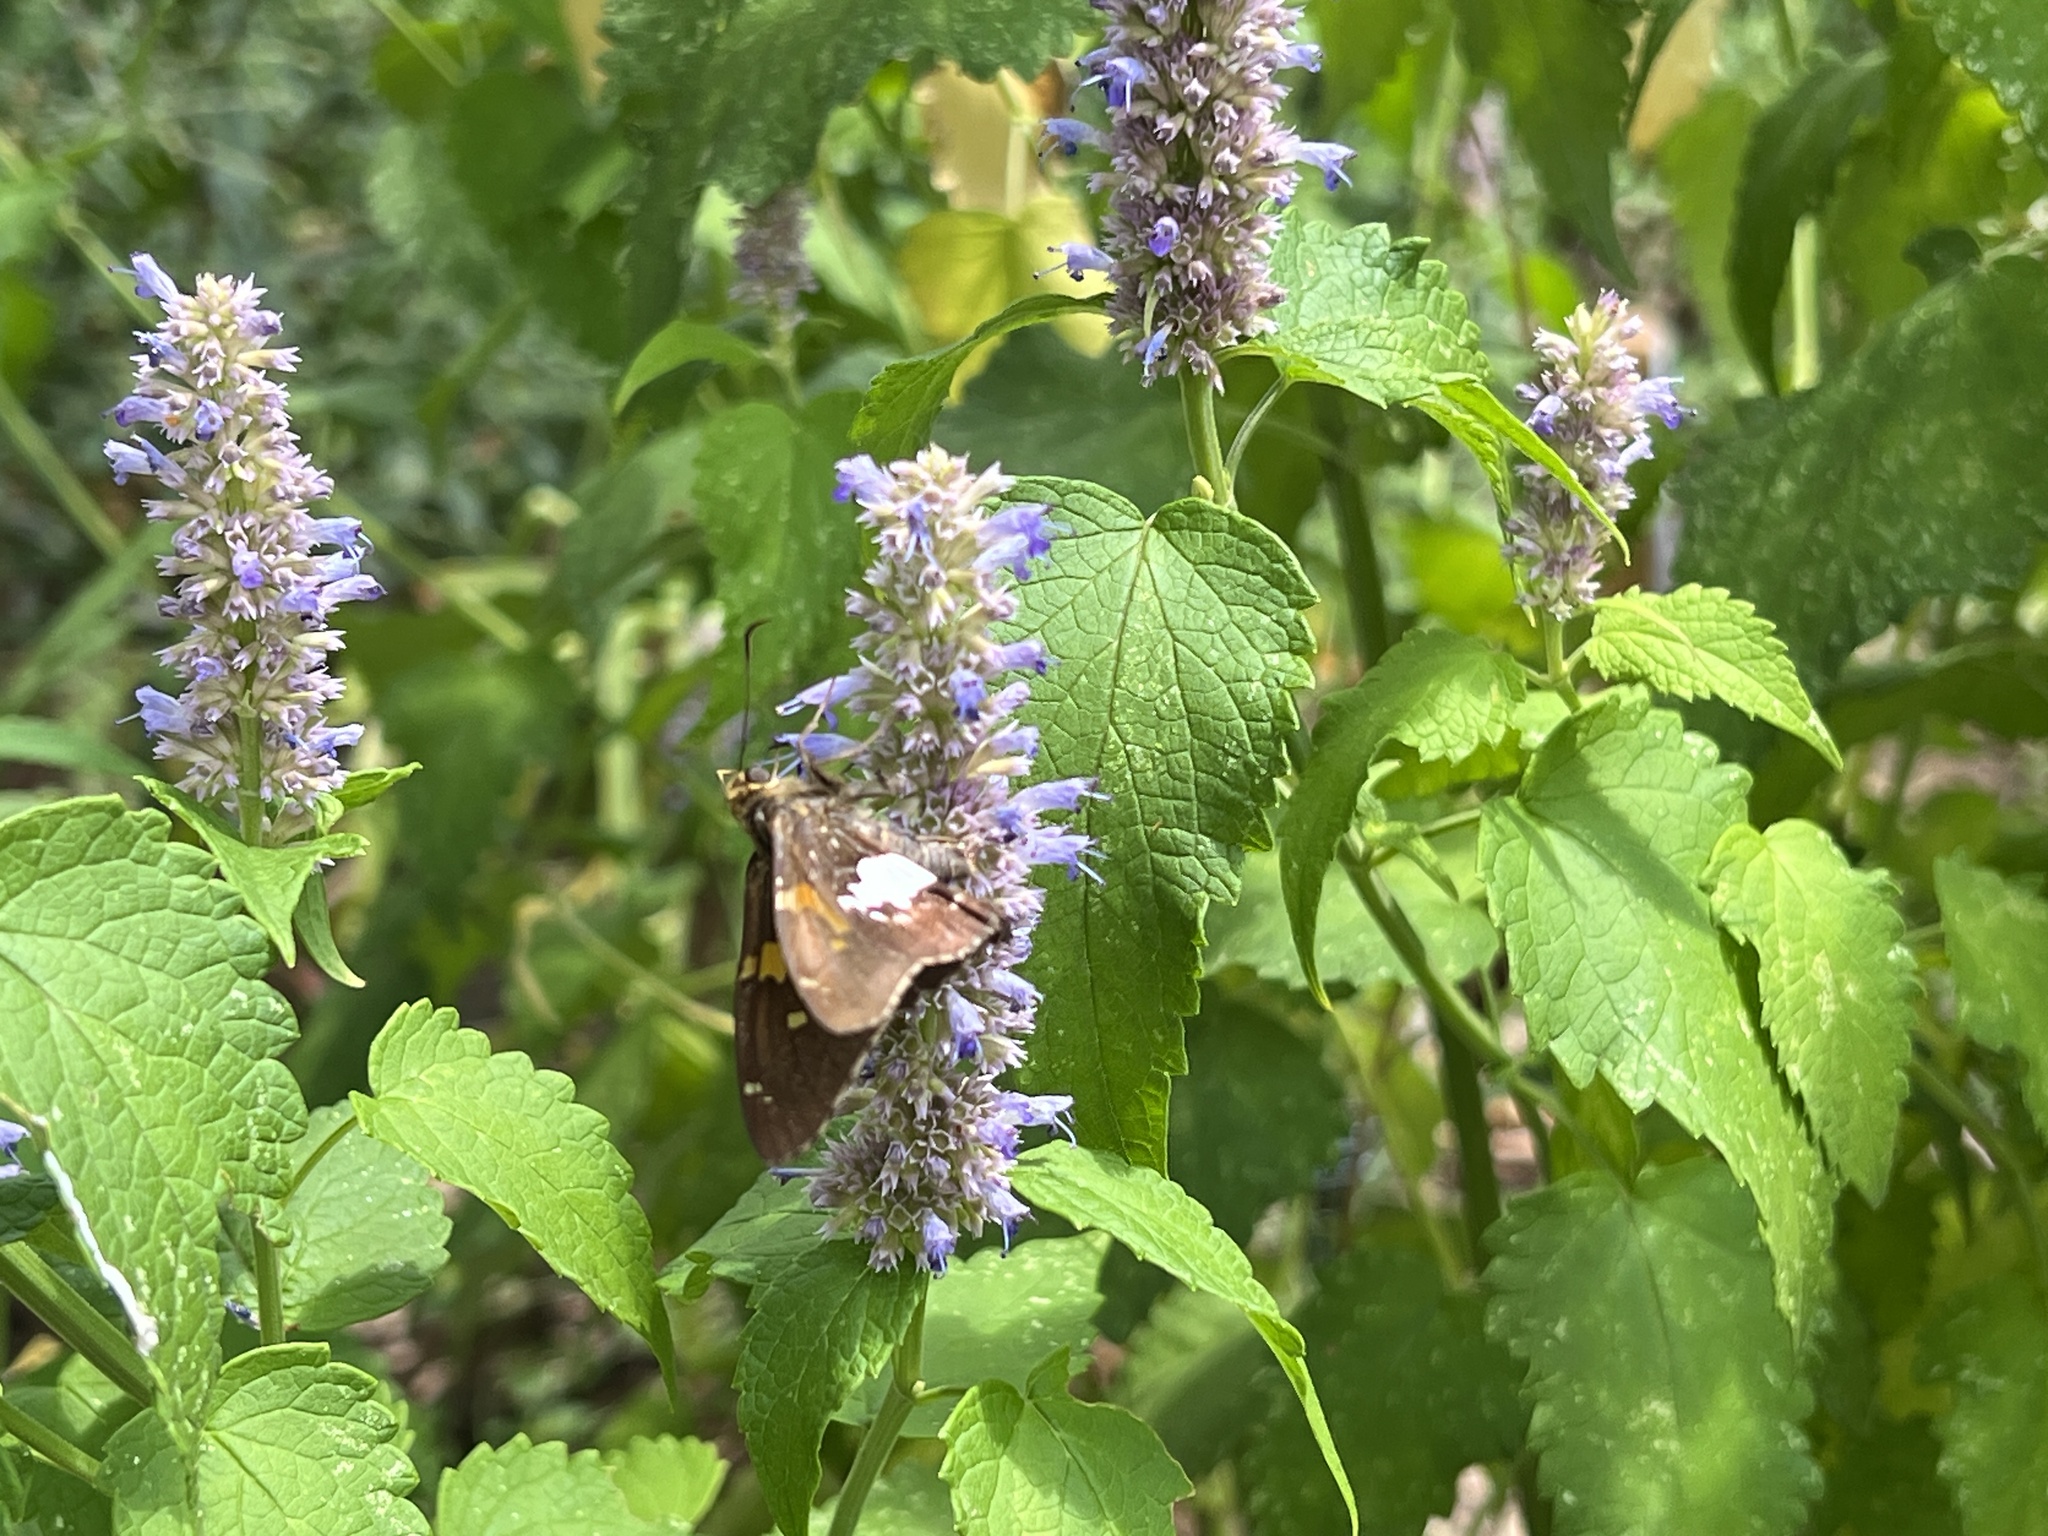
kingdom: Animalia
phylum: Arthropoda
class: Insecta
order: Lepidoptera
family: Hesperiidae
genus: Epargyreus
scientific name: Epargyreus clarus
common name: Silver-spotted skipper
